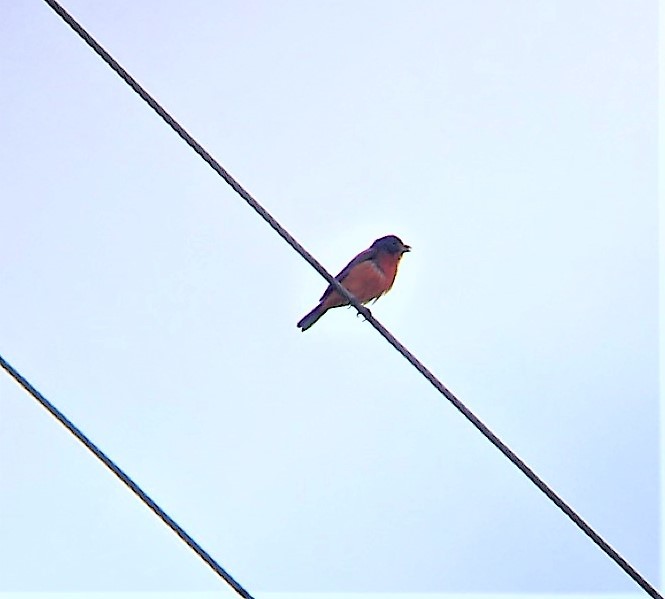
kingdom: Animalia
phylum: Chordata
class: Aves
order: Passeriformes
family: Cardinalidae
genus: Passerina
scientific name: Passerina ciris
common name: Painted bunting
